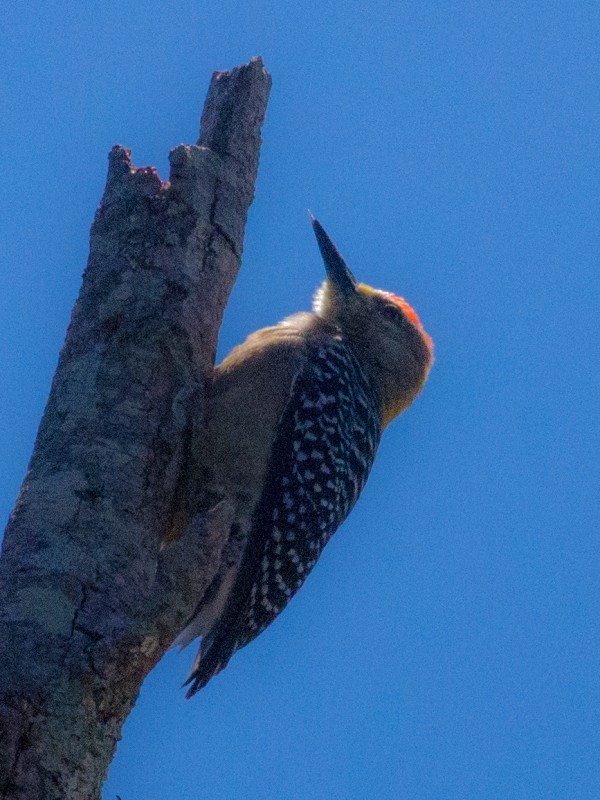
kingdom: Animalia
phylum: Chordata
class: Aves
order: Piciformes
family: Picidae
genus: Melanerpes
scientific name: Melanerpes hoffmannii
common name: Hoffmann's woodpecker
